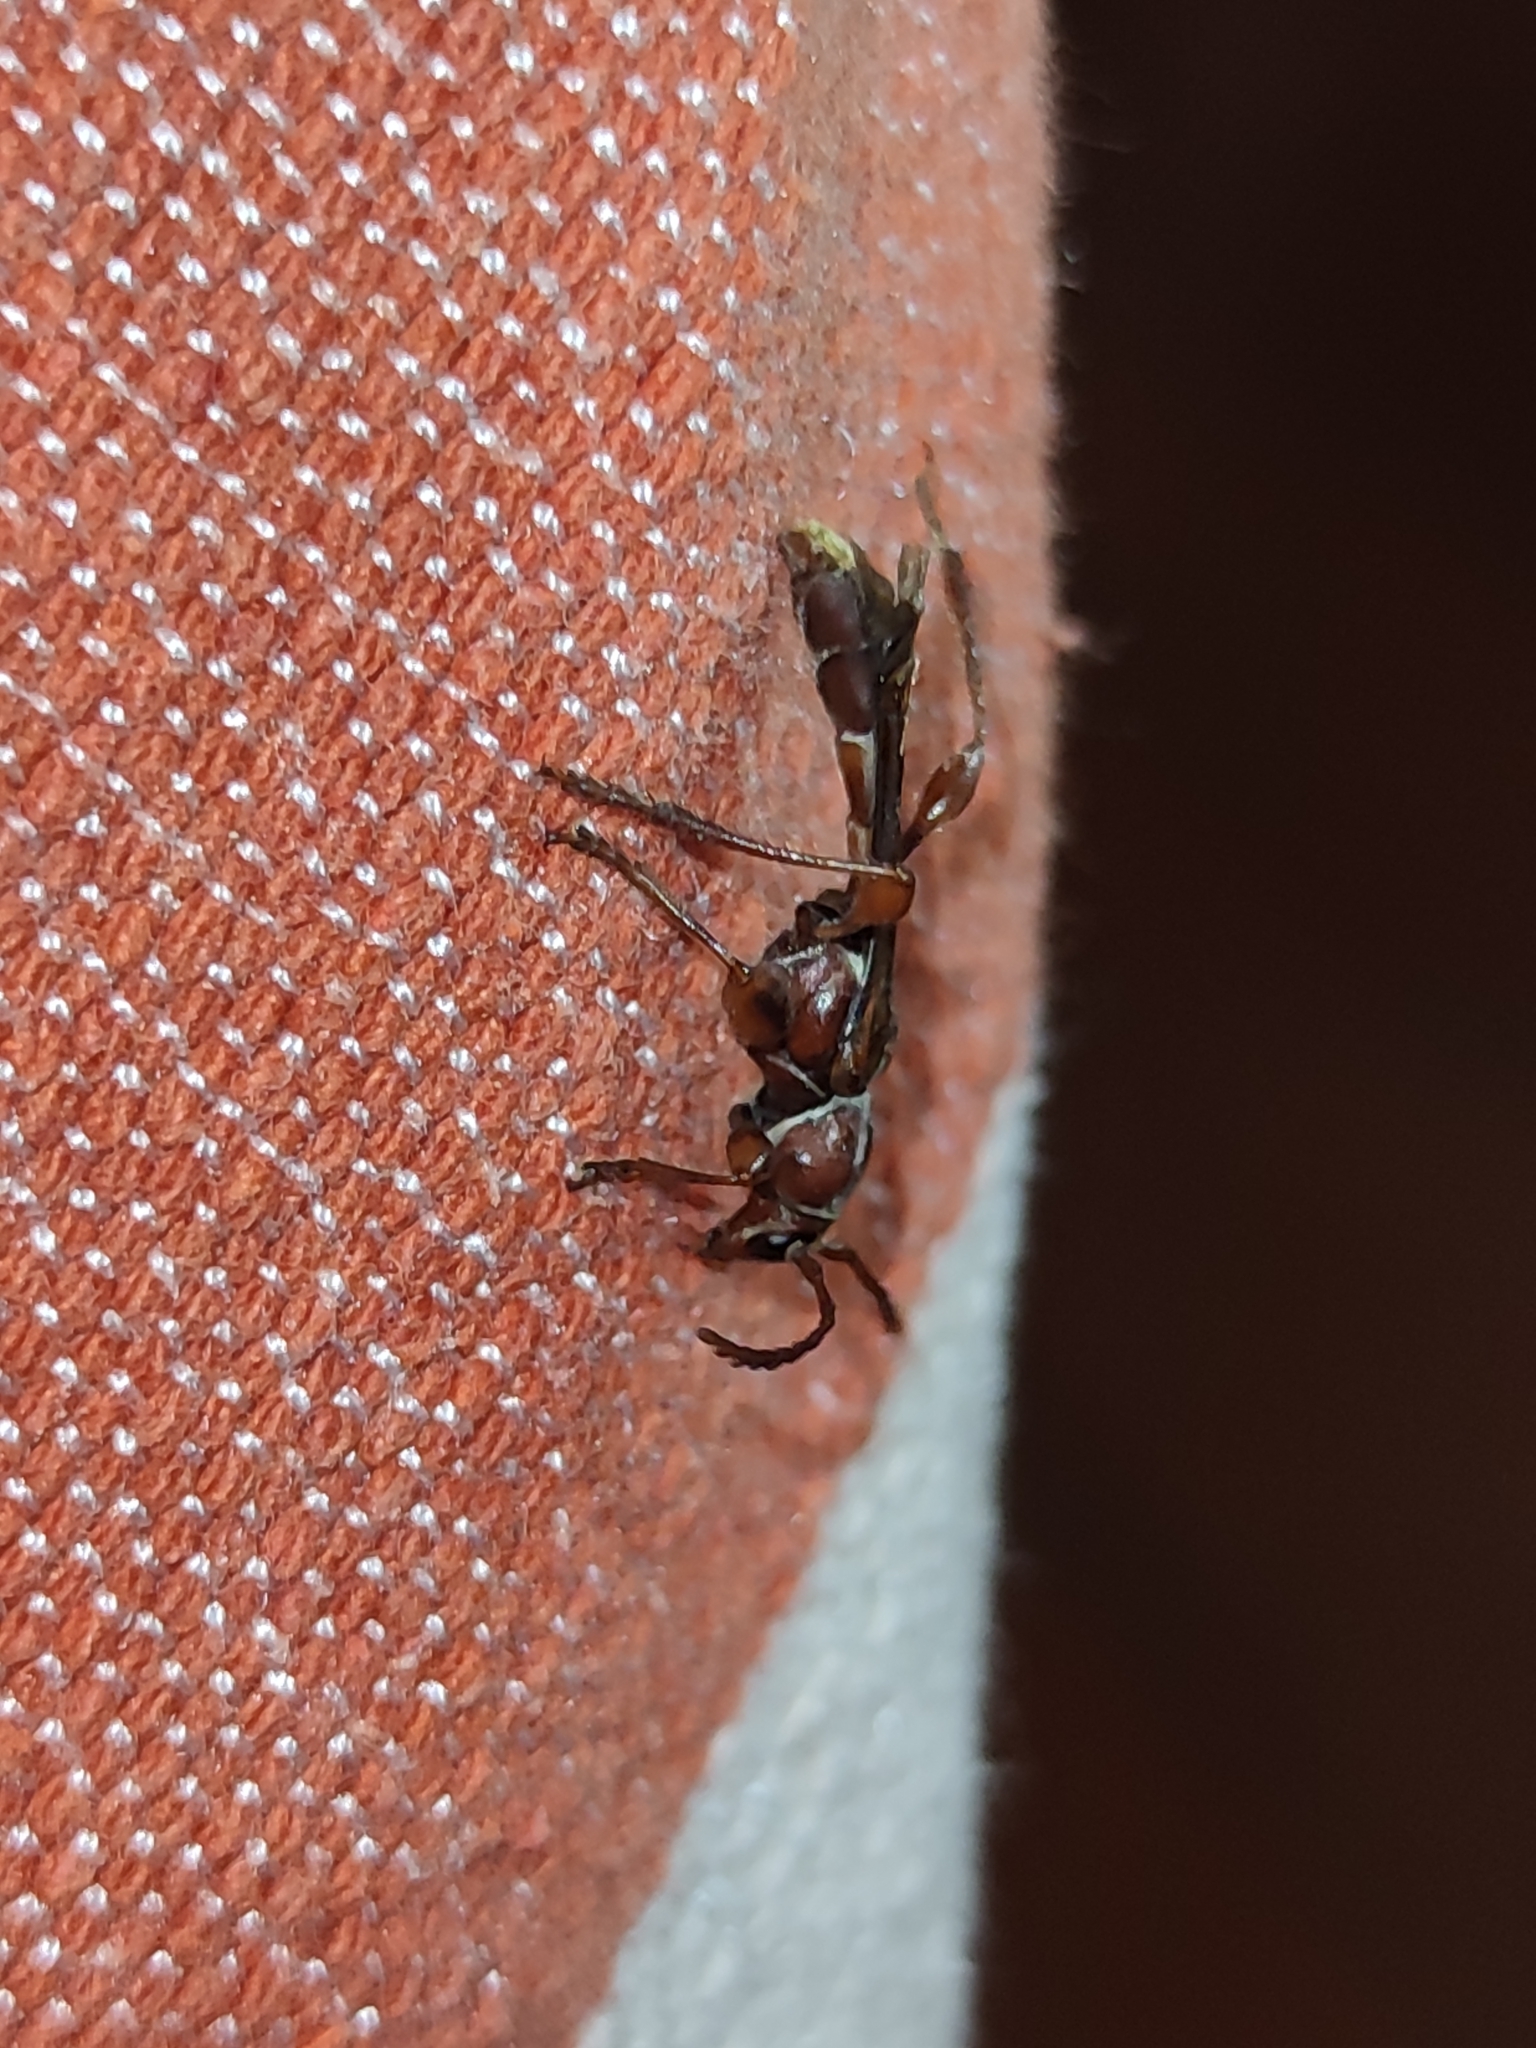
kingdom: Animalia
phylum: Arthropoda
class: Insecta
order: Coleoptera
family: Cerambycidae
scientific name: Cerambycidae
